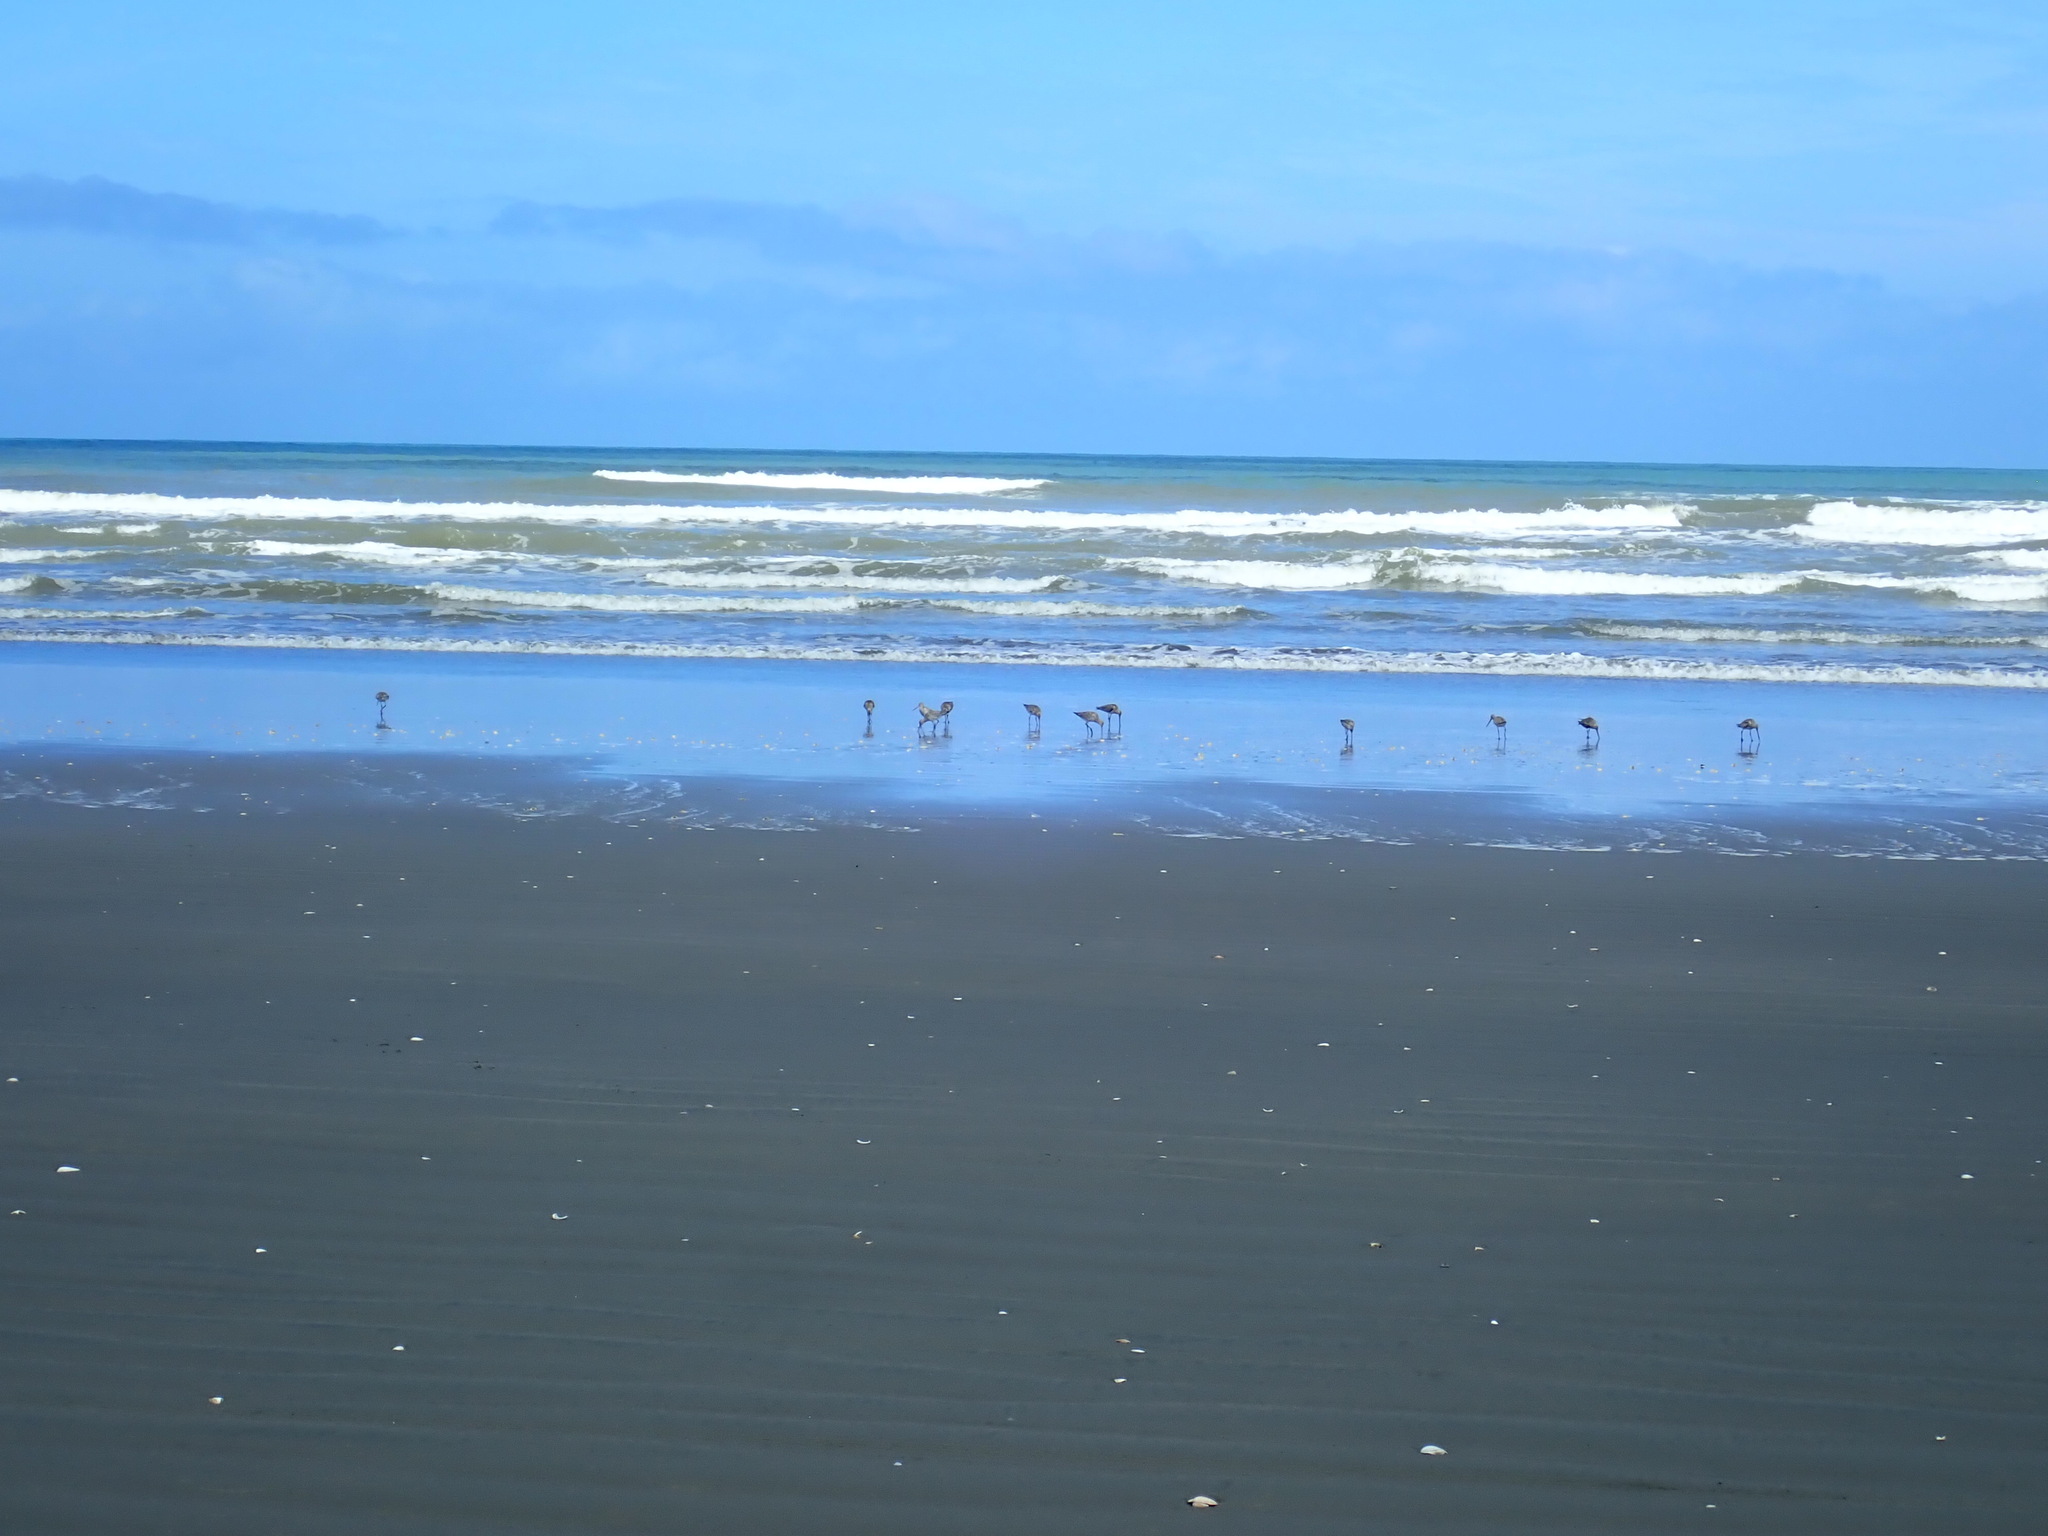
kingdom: Animalia
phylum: Chordata
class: Aves
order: Charadriiformes
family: Scolopacidae
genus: Limosa
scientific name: Limosa lapponica
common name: Bar-tailed godwit
